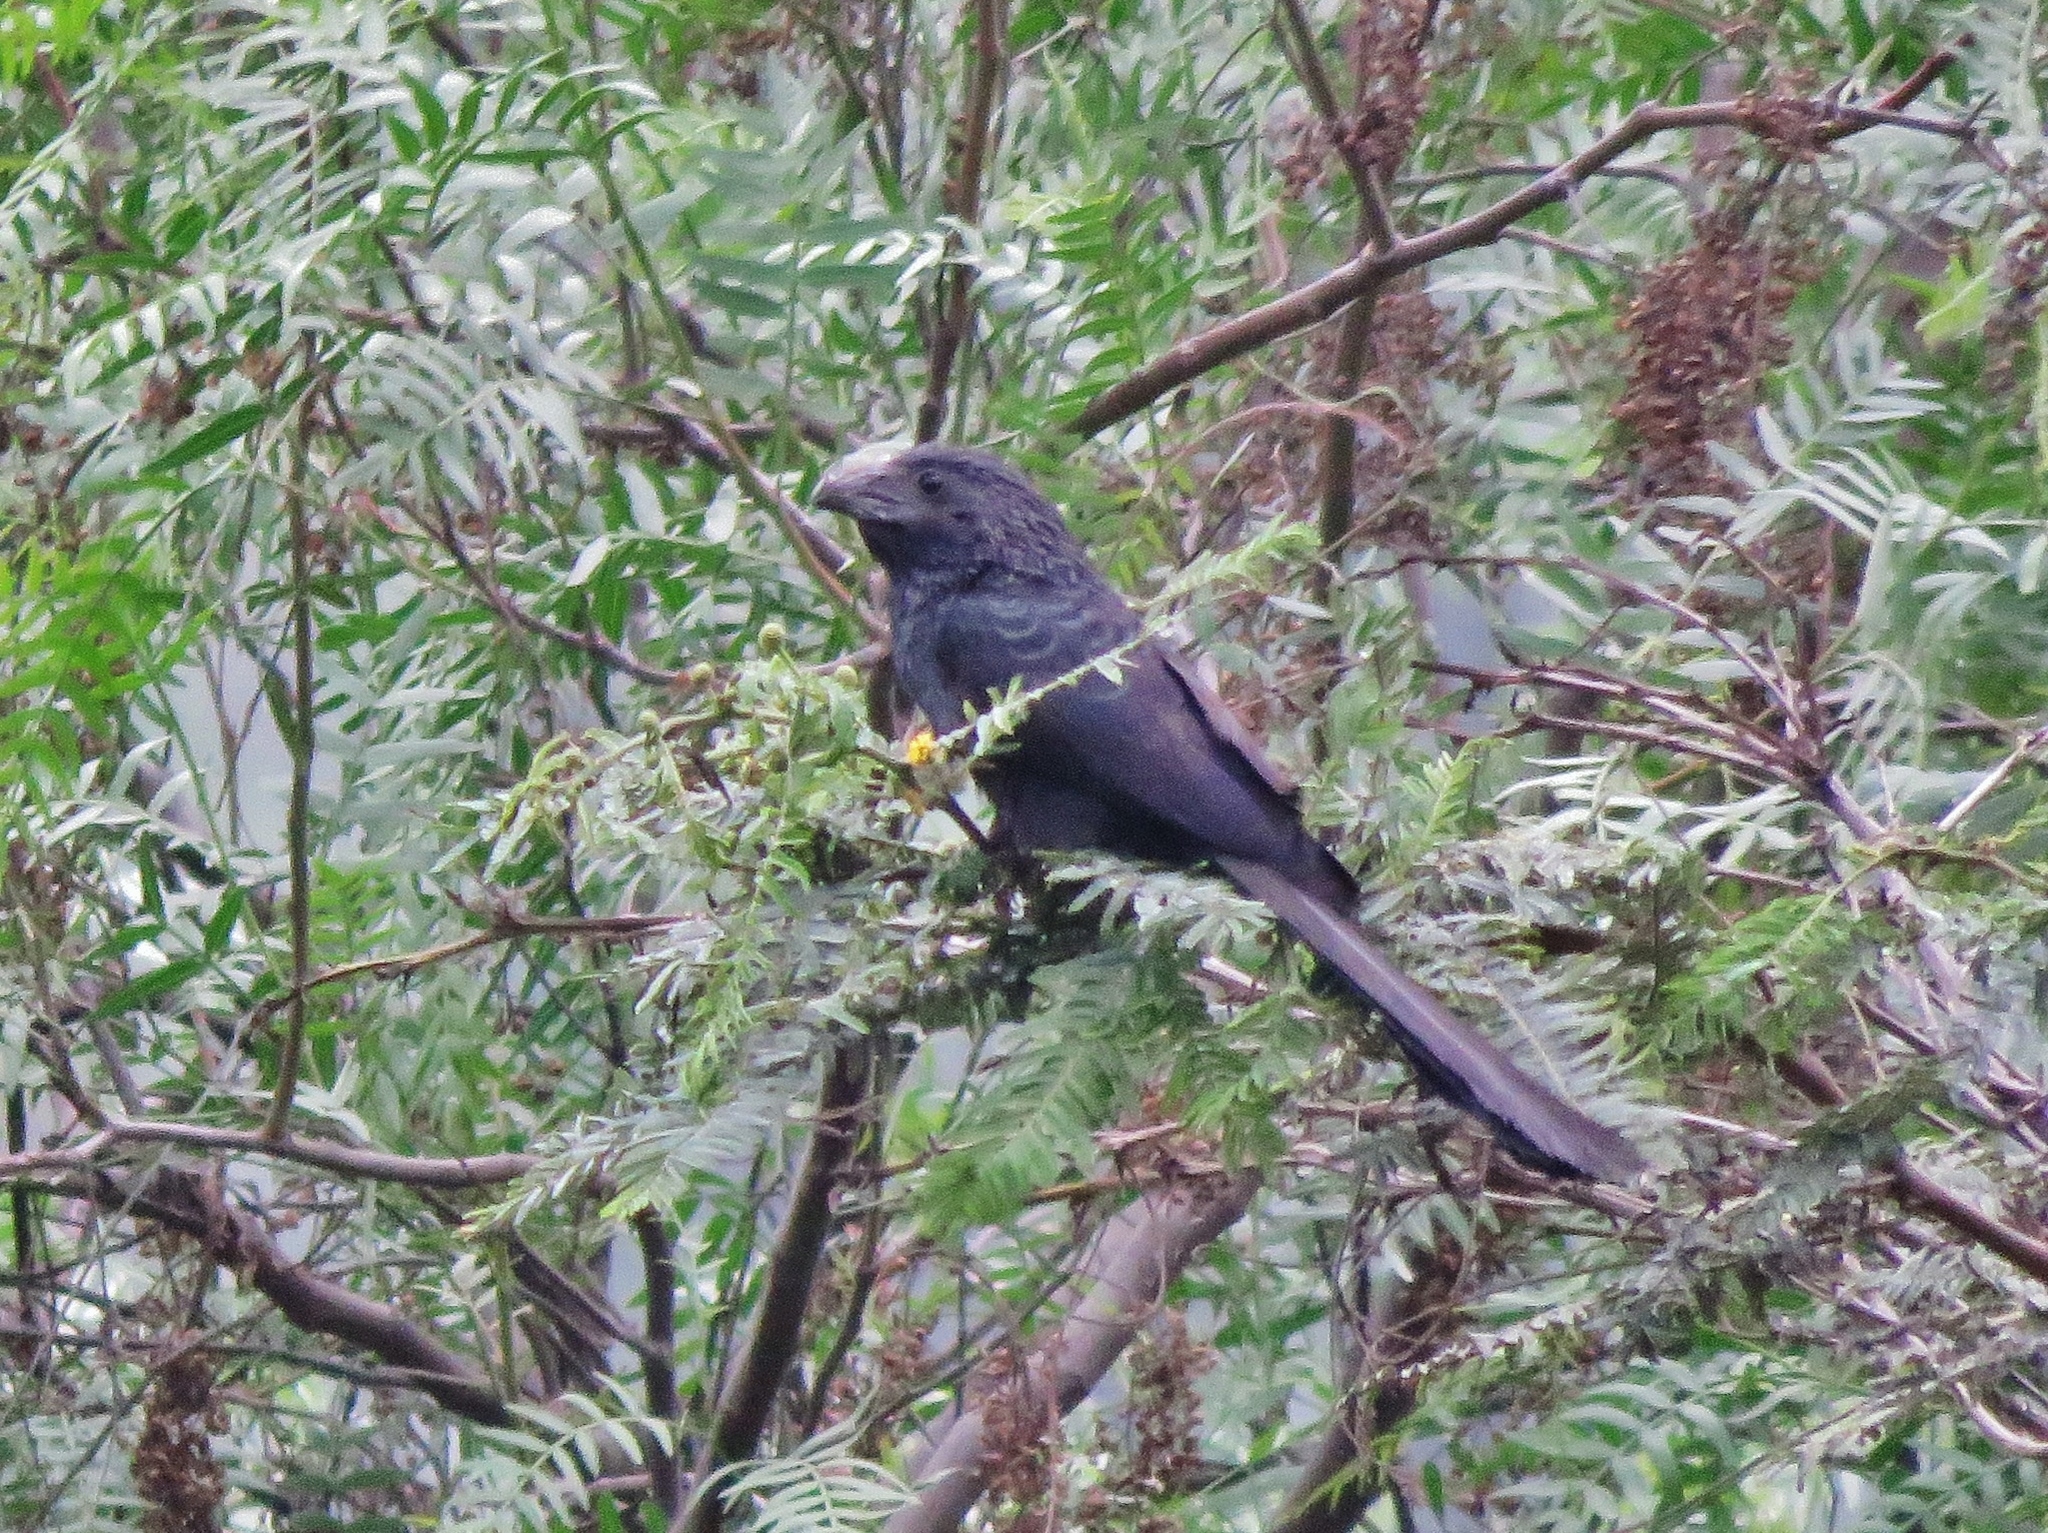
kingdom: Animalia
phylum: Chordata
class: Aves
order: Cuculiformes
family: Cuculidae
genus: Crotophaga
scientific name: Crotophaga sulcirostris
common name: Groove-billed ani
